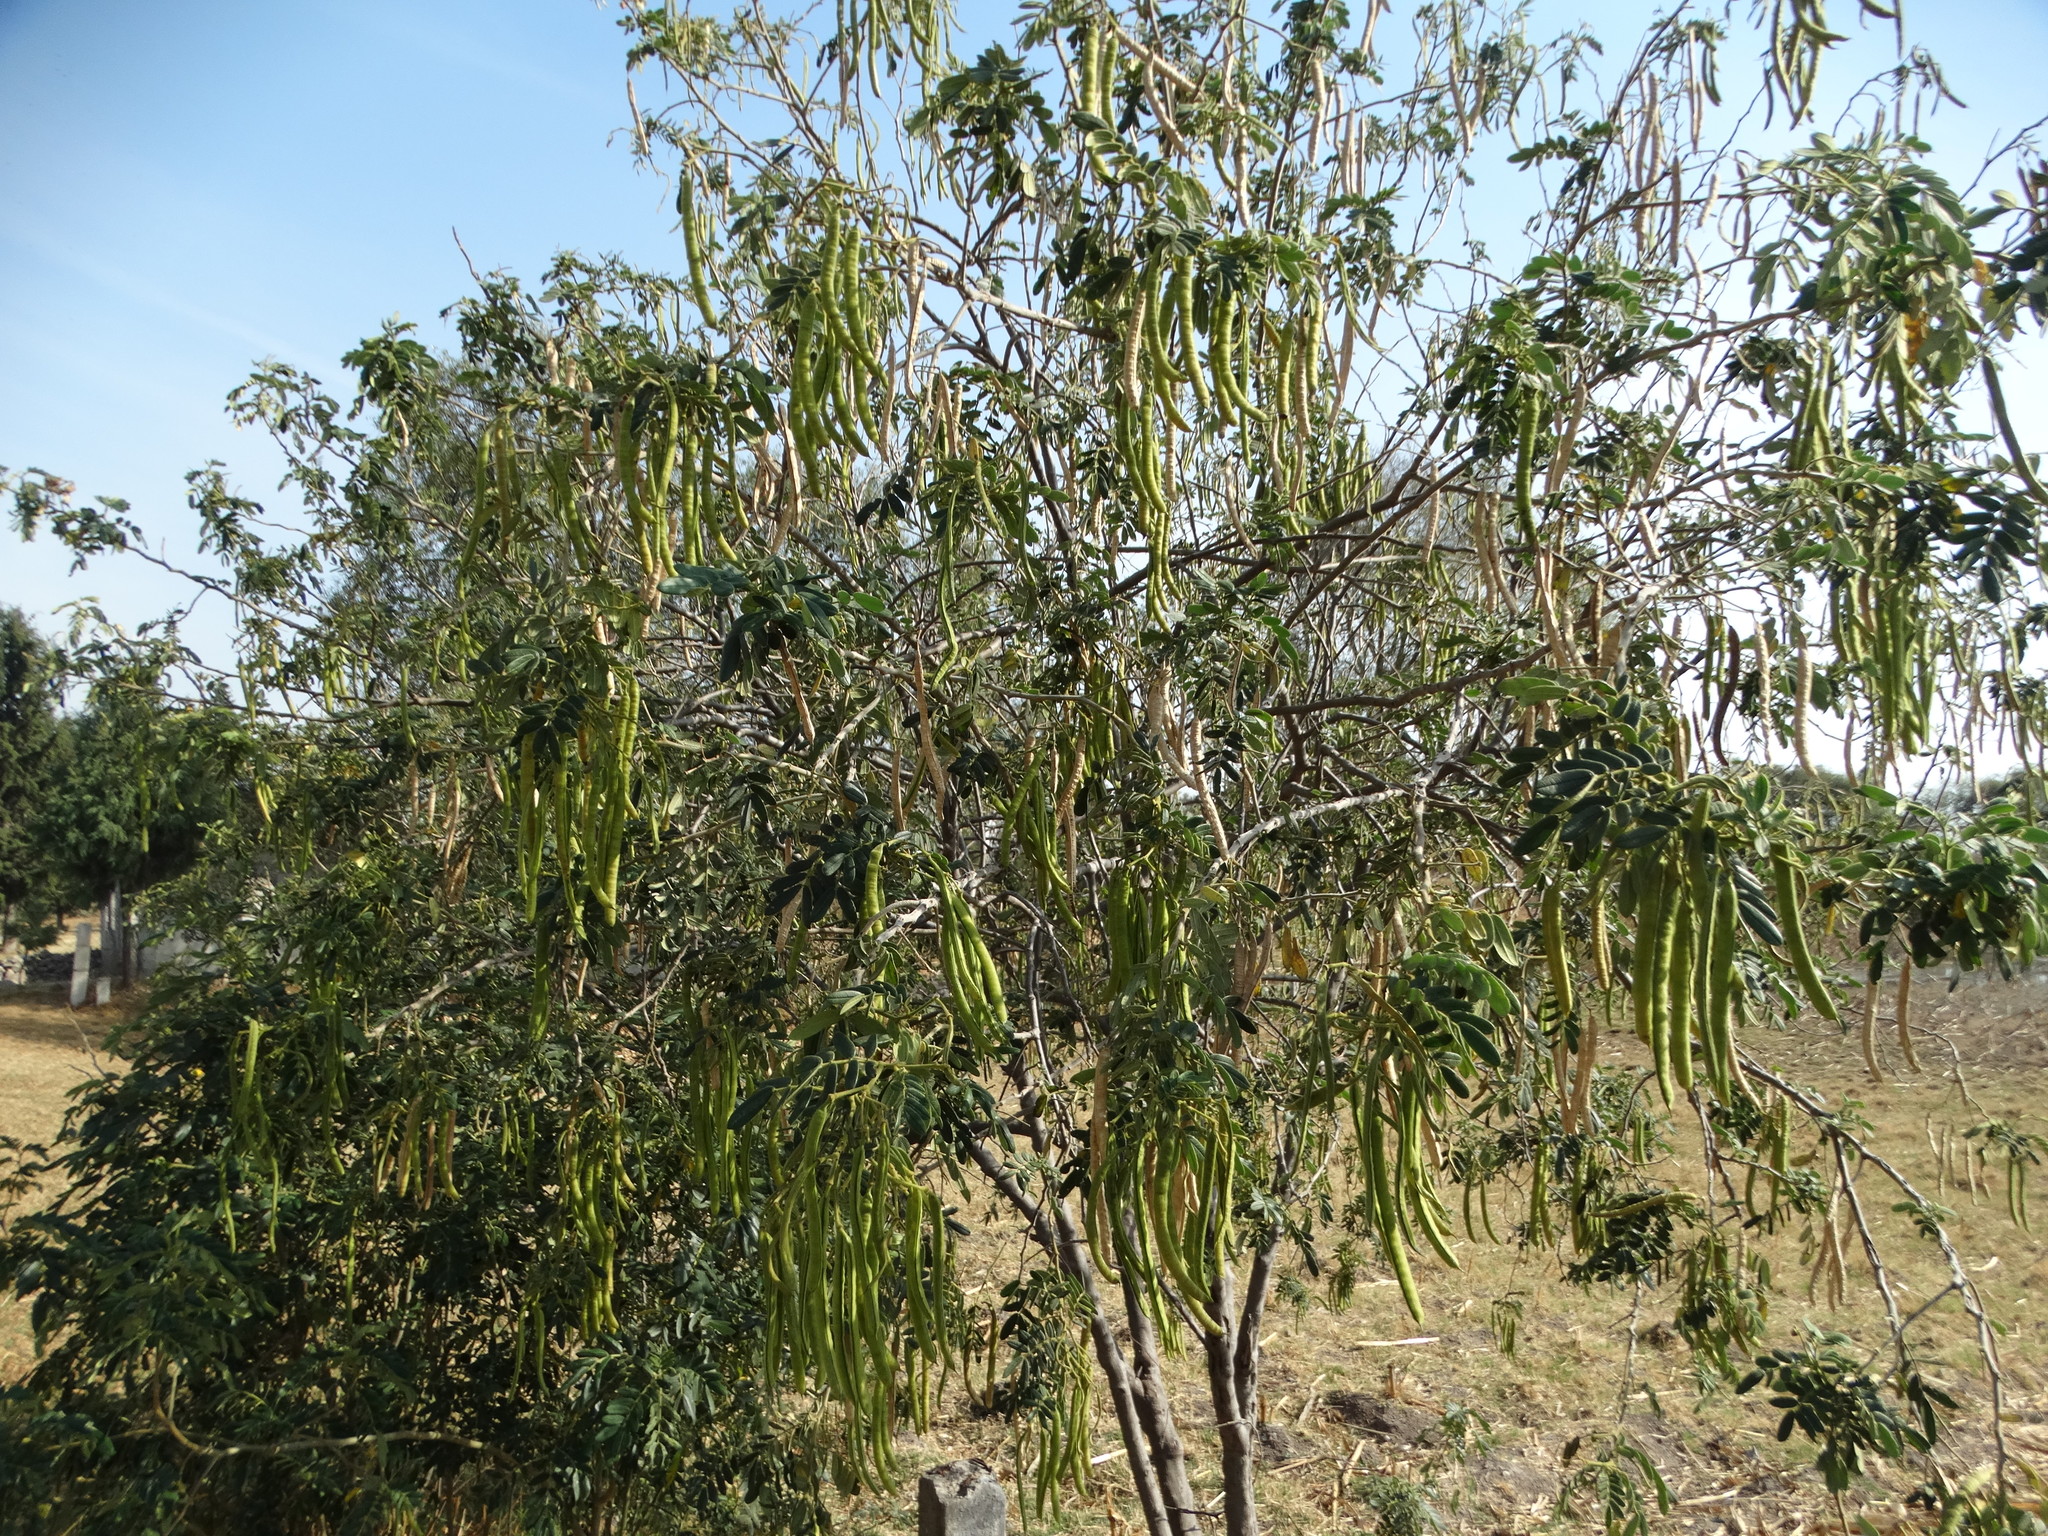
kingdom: Plantae
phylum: Tracheophyta
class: Magnoliopsida
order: Fabales
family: Fabaceae
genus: Senna
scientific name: Senna multiglandulosa
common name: Glandular senna
